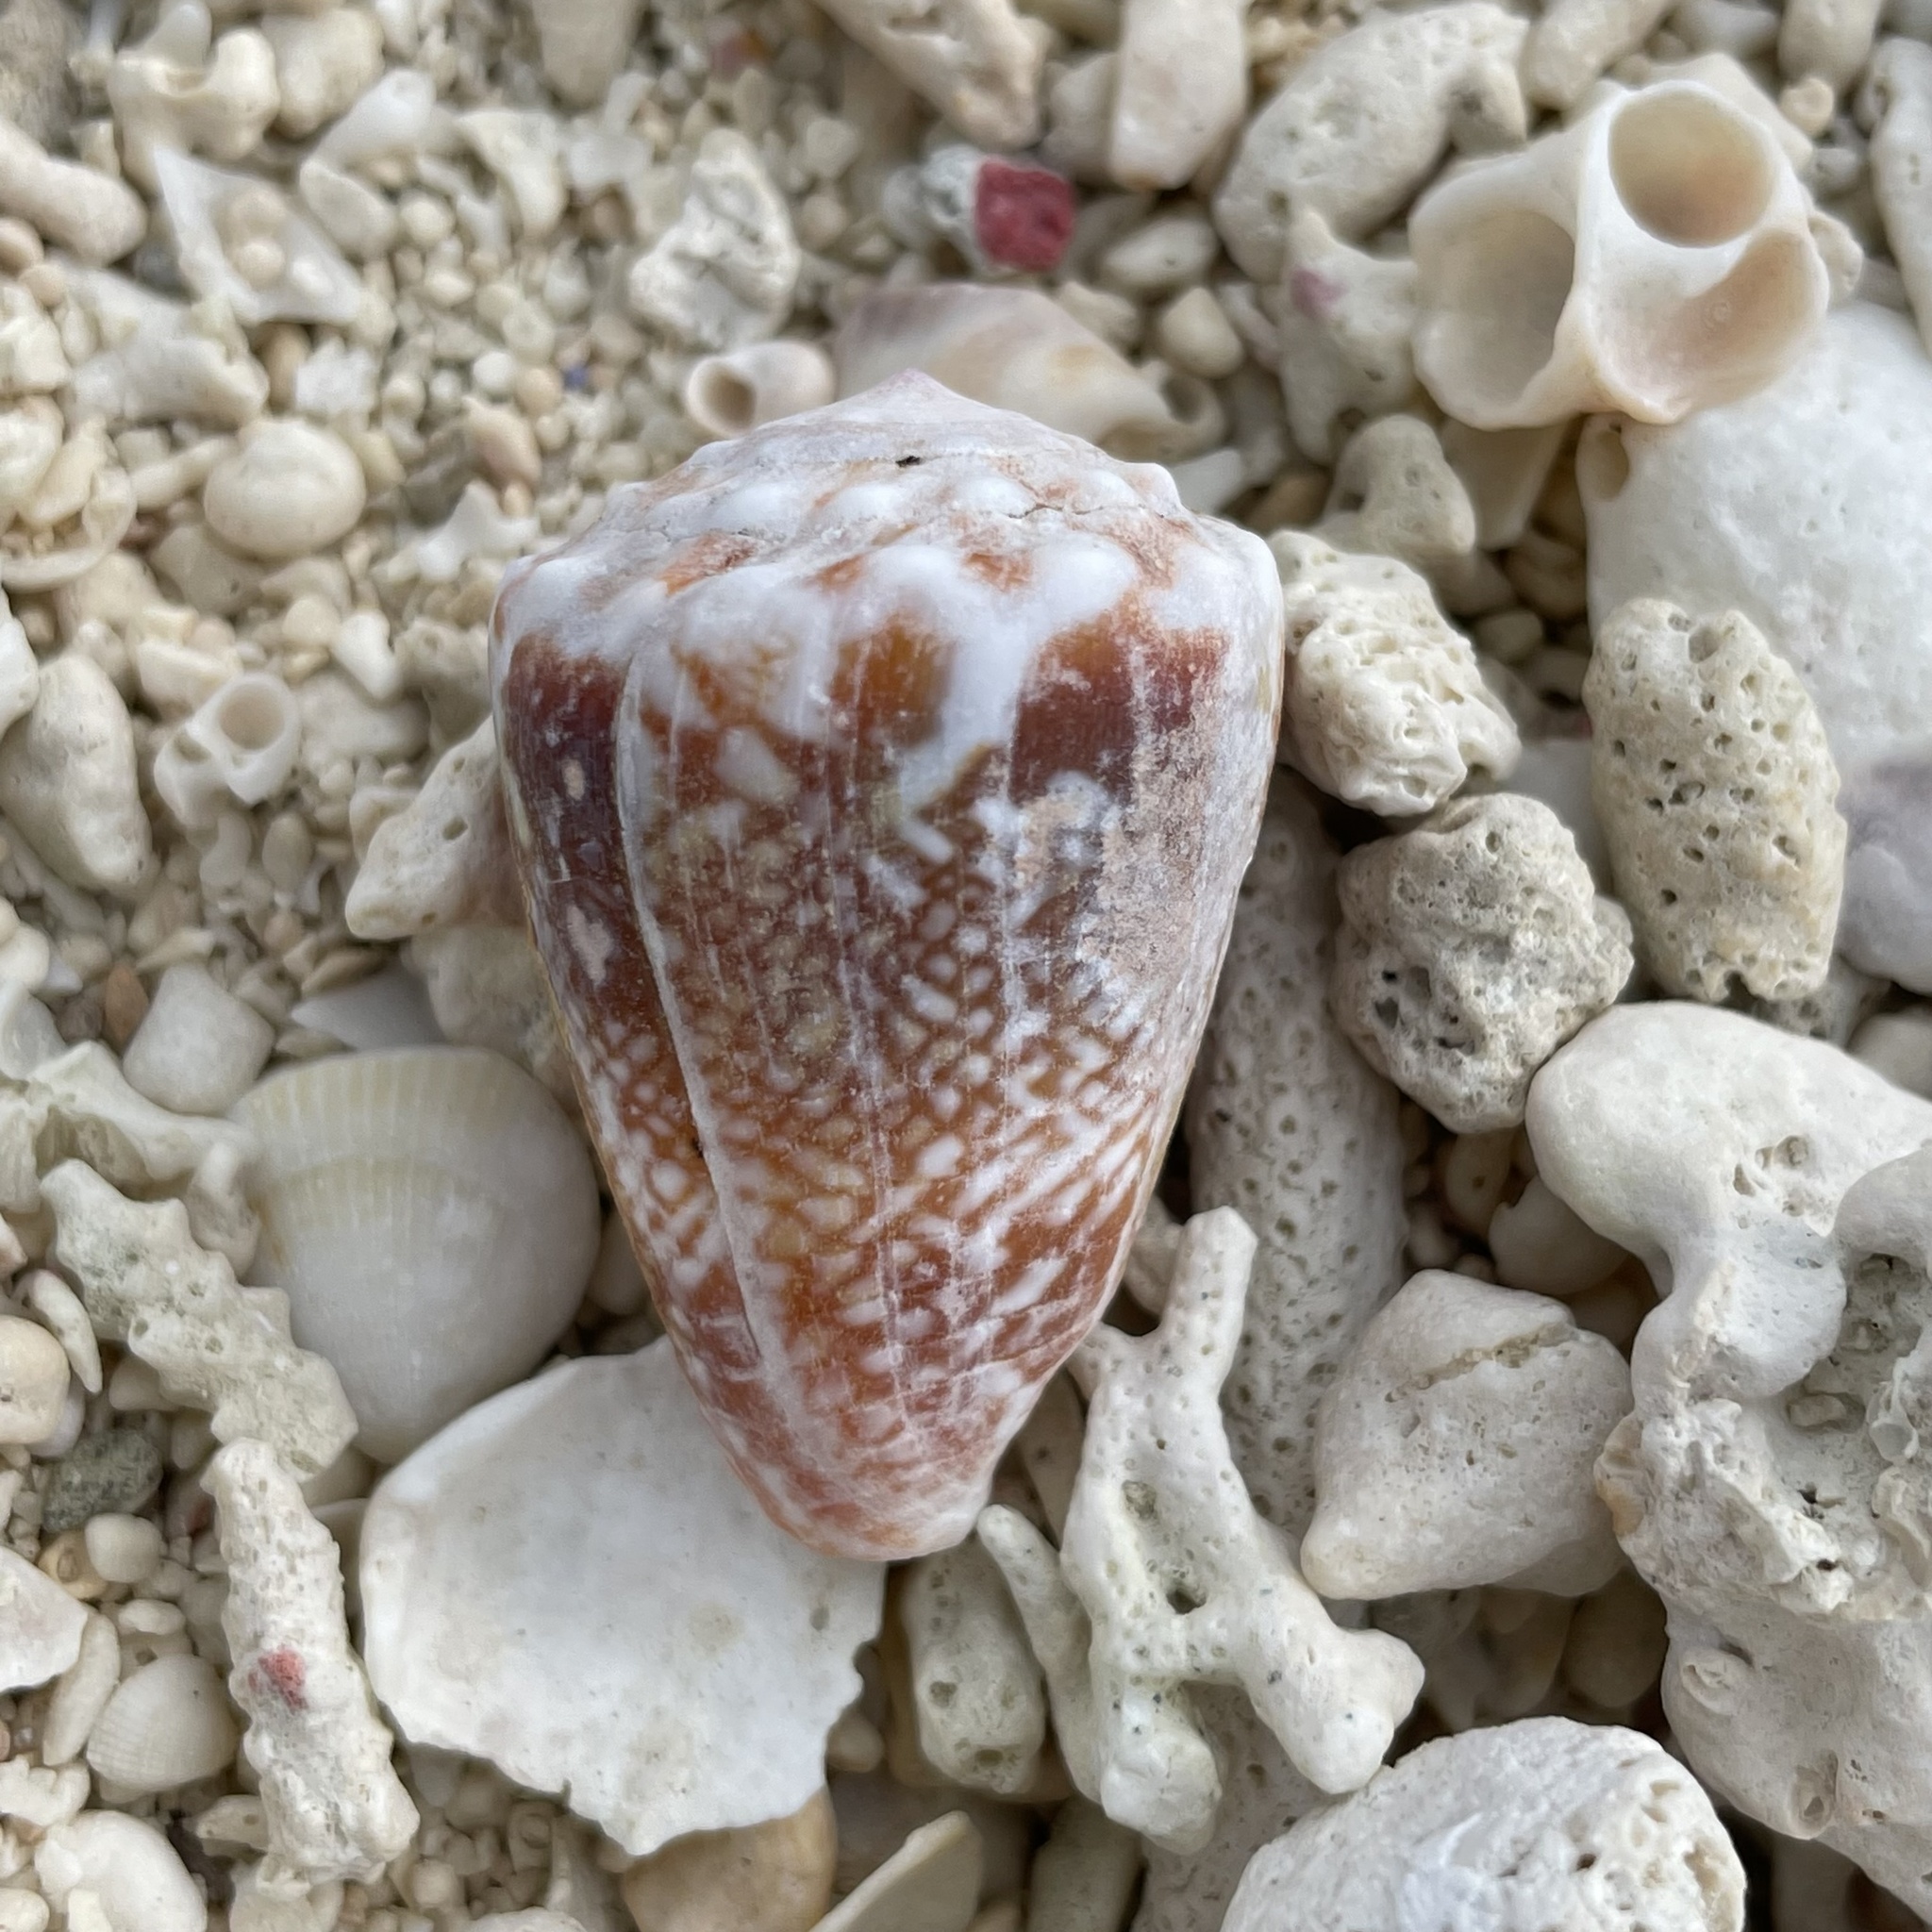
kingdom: Animalia
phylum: Mollusca
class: Gastropoda
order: Neogastropoda
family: Conidae
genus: Conus
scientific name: Conus fulgetrum
